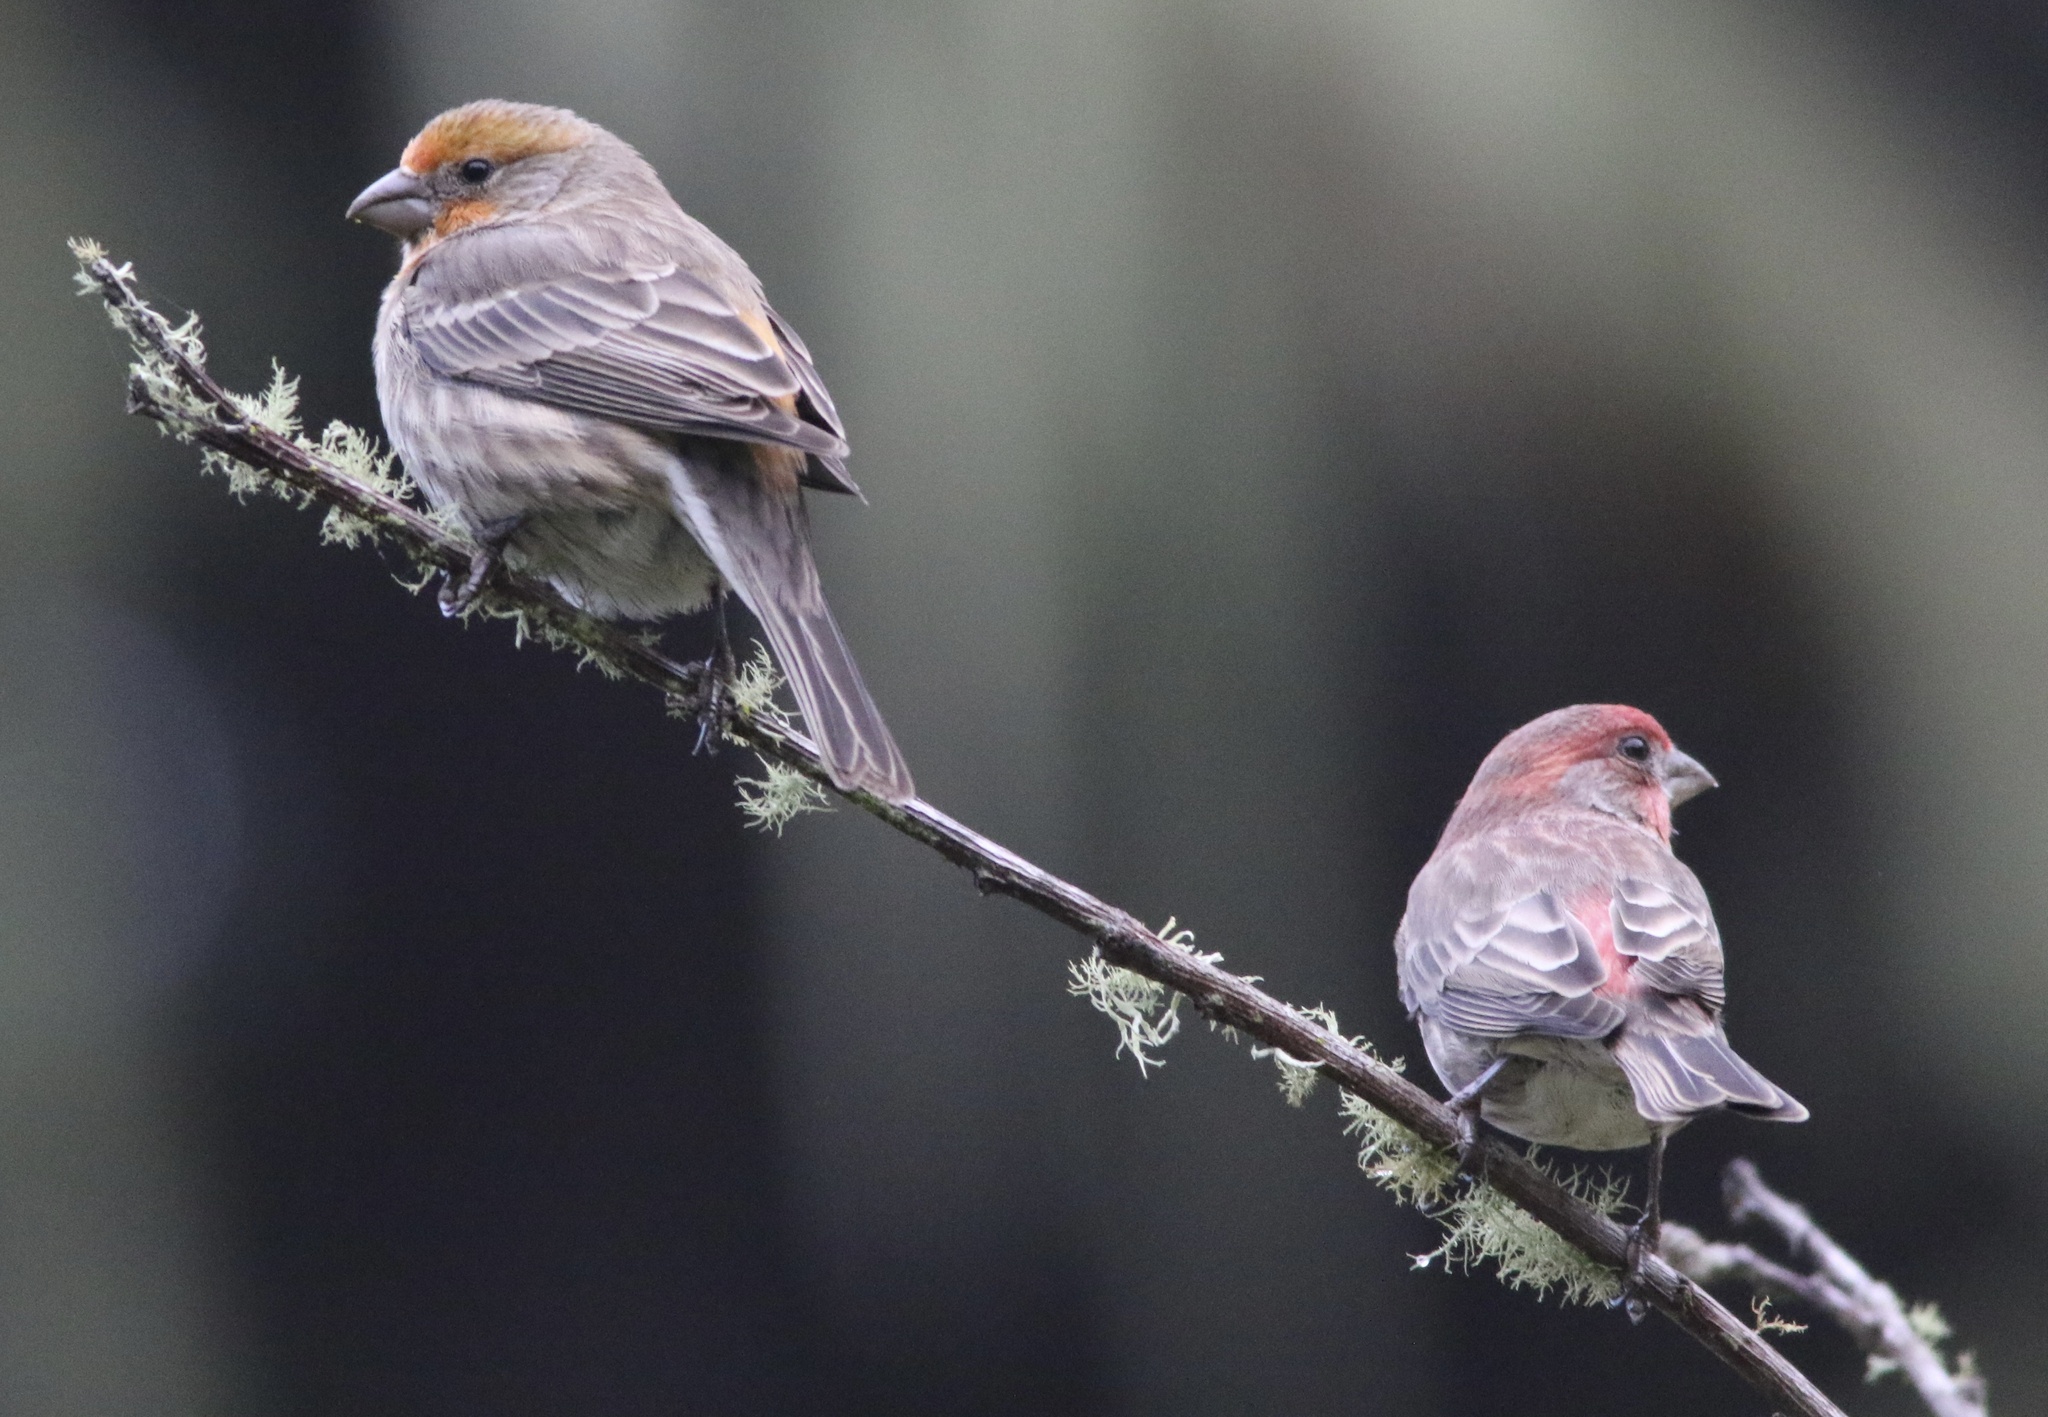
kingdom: Animalia
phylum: Chordata
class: Aves
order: Passeriformes
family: Fringillidae
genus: Haemorhous
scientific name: Haemorhous mexicanus
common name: House finch
